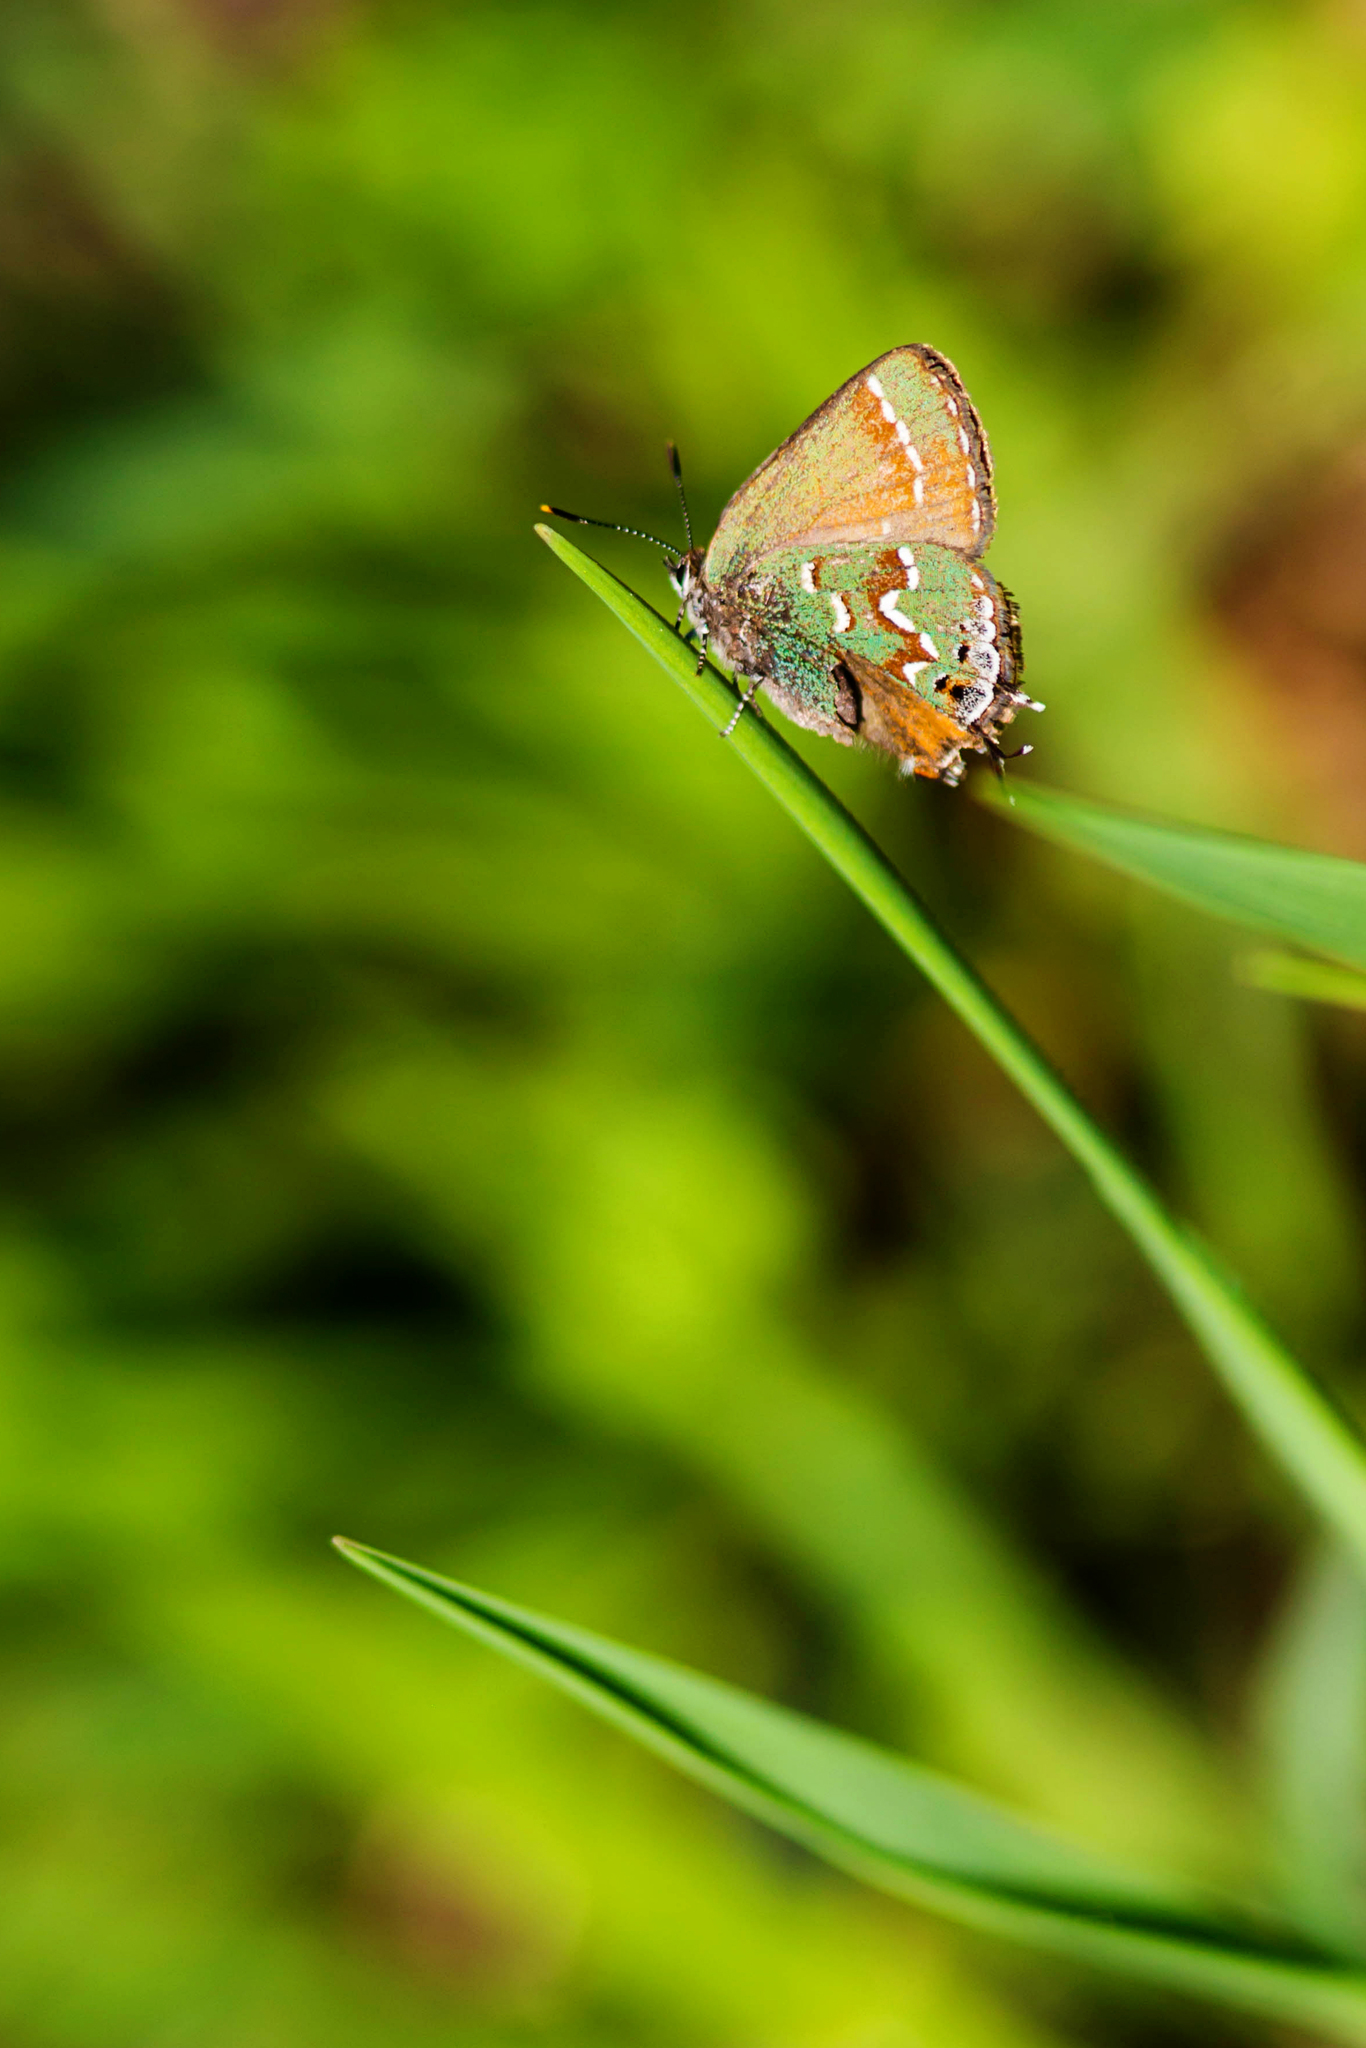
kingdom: Animalia
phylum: Arthropoda
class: Insecta
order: Lepidoptera
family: Lycaenidae
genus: Mitoura
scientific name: Mitoura gryneus
